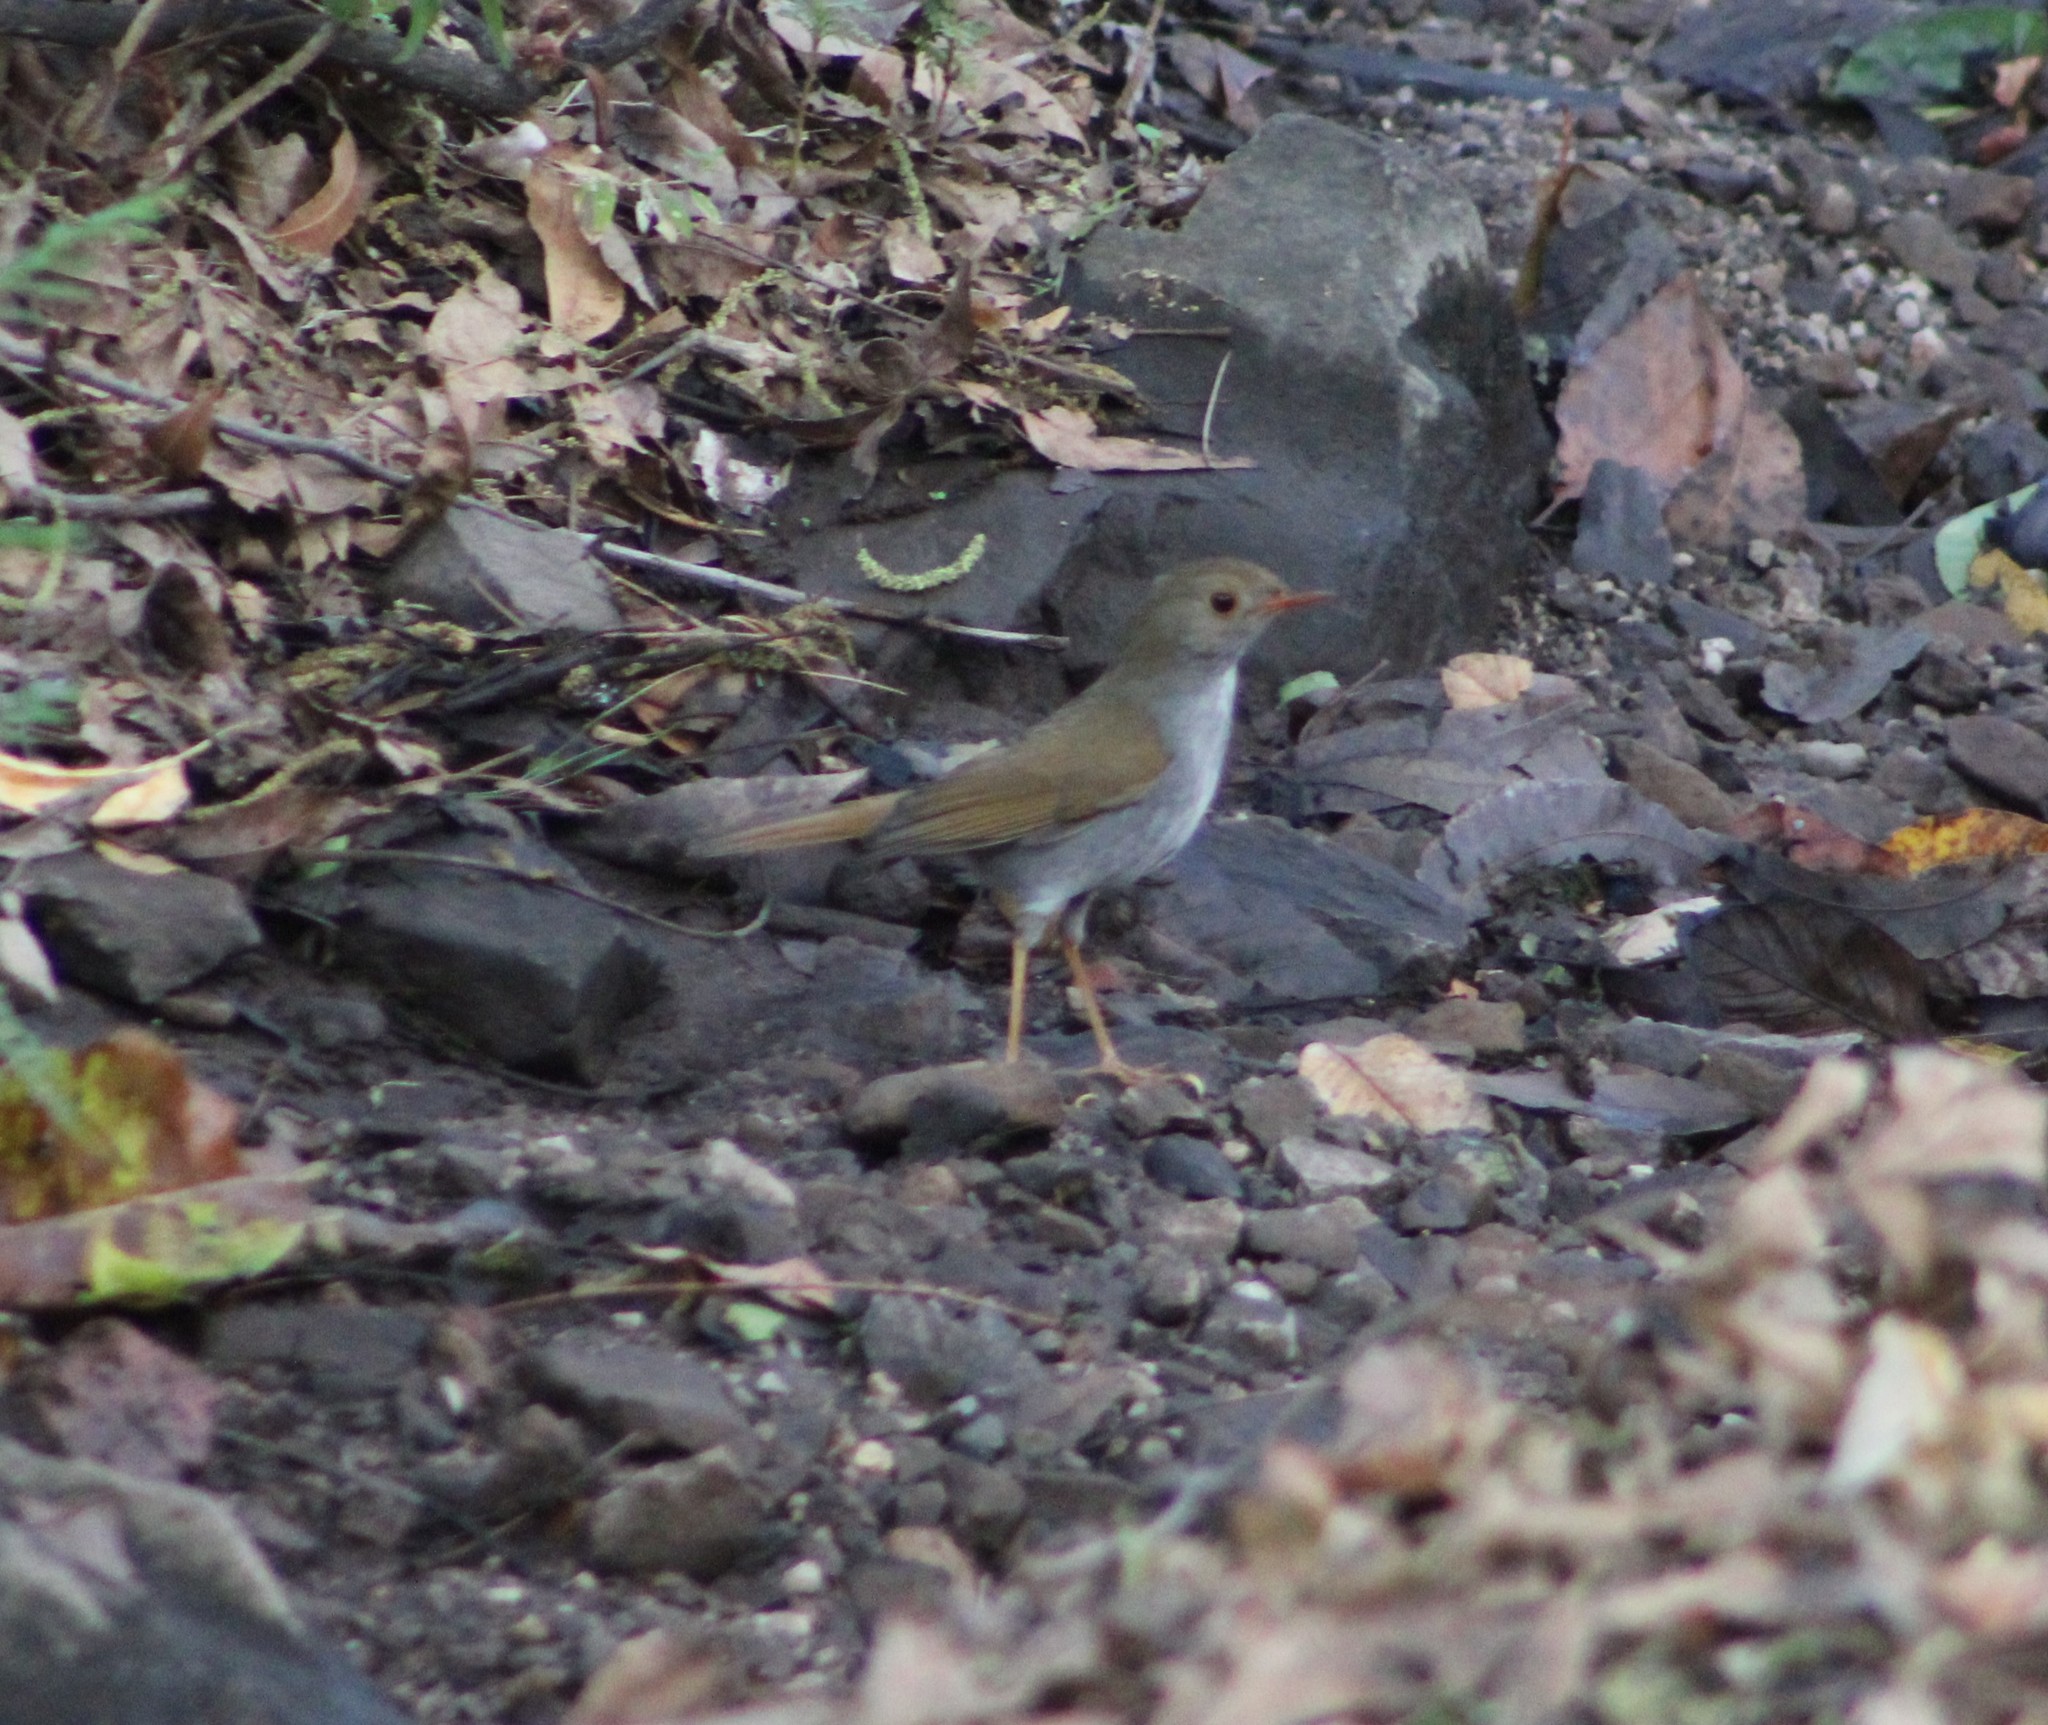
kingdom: Animalia
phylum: Chordata
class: Aves
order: Passeriformes
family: Turdidae
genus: Catharus
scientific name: Catharus aurantiirostris
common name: Orange-billed nightingale-thrush
